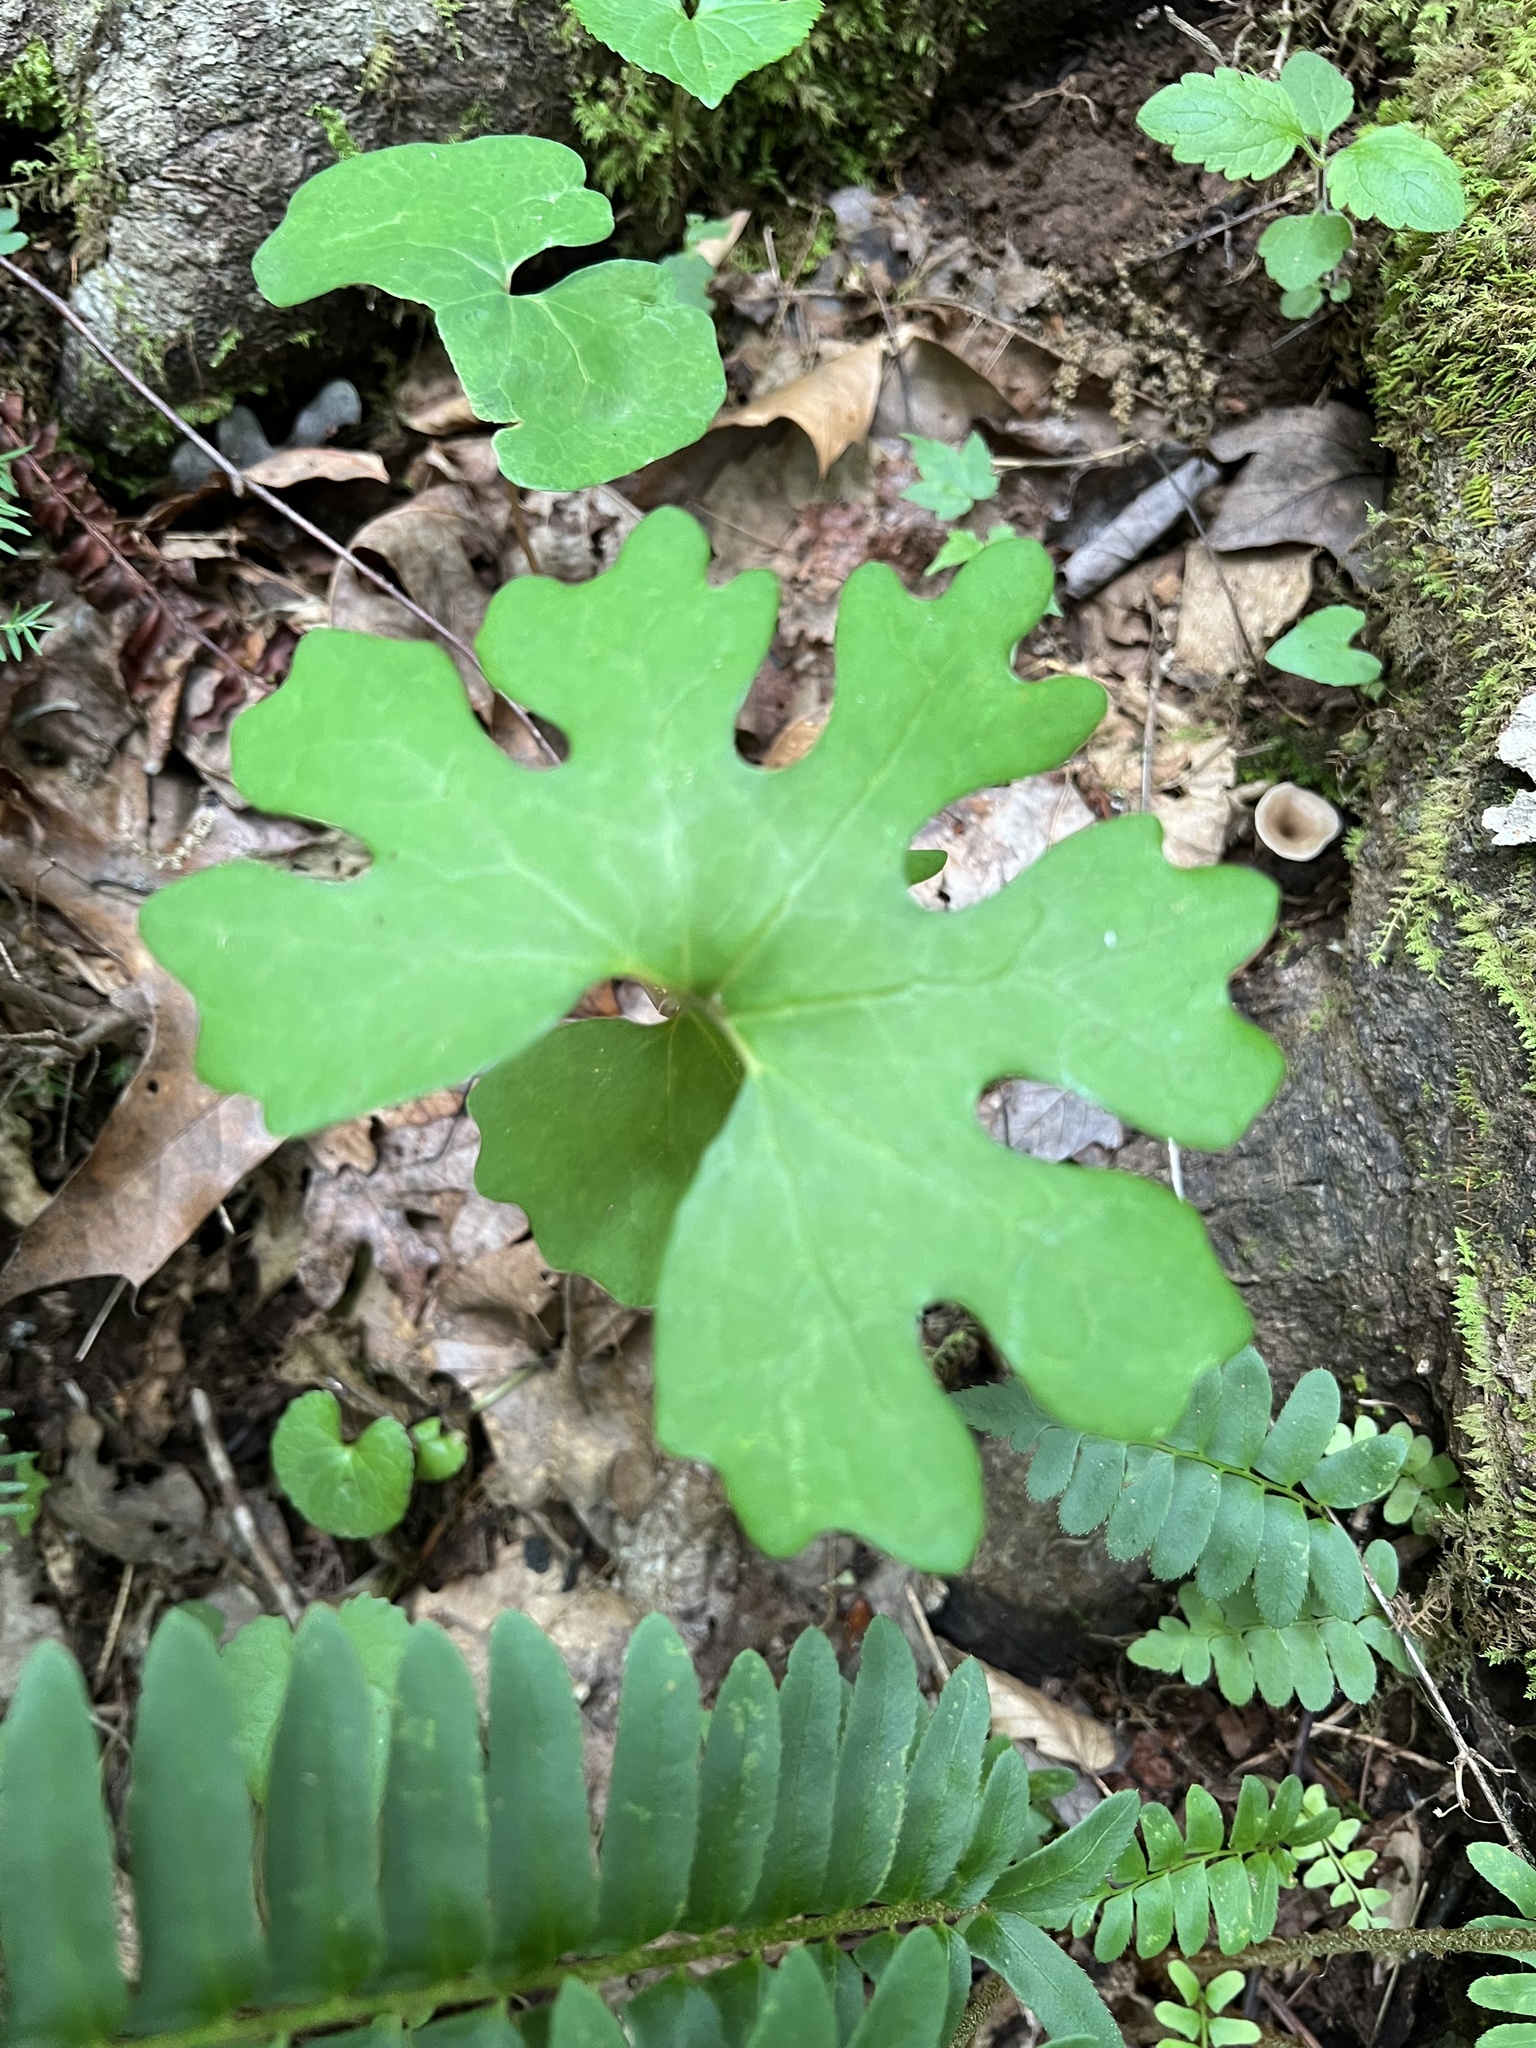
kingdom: Plantae
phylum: Tracheophyta
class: Magnoliopsida
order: Ranunculales
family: Papaveraceae
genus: Sanguinaria
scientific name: Sanguinaria canadensis
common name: Bloodroot
